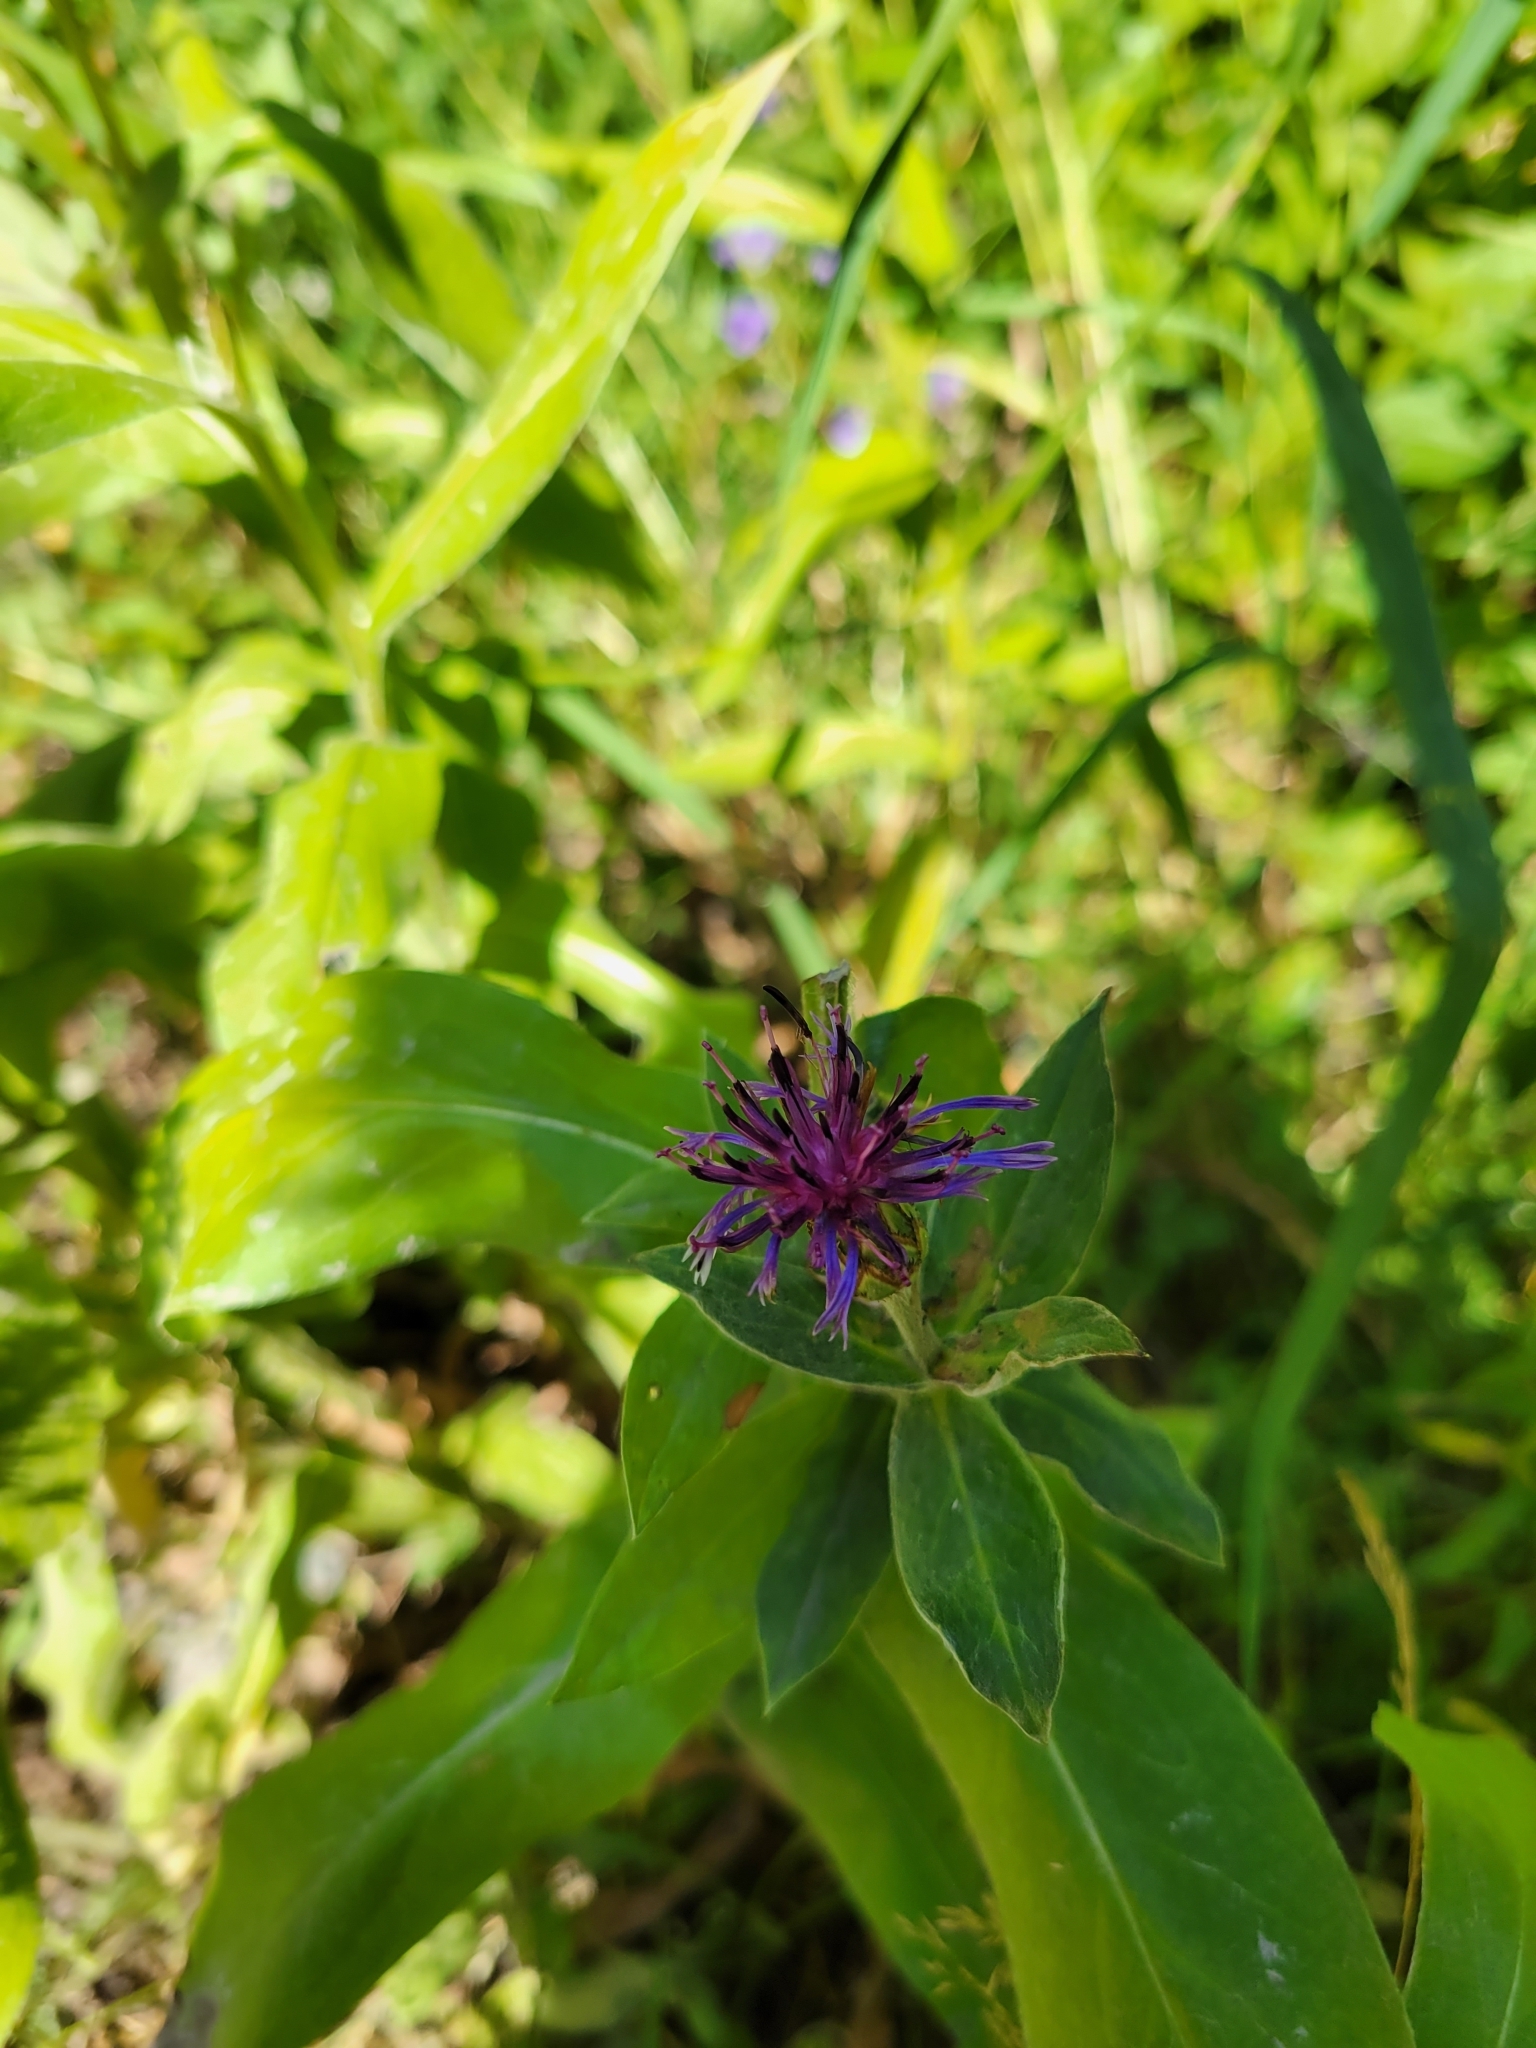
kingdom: Plantae
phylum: Tracheophyta
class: Magnoliopsida
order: Asterales
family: Asteraceae
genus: Centaurea
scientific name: Centaurea montana
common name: Perennial cornflower
